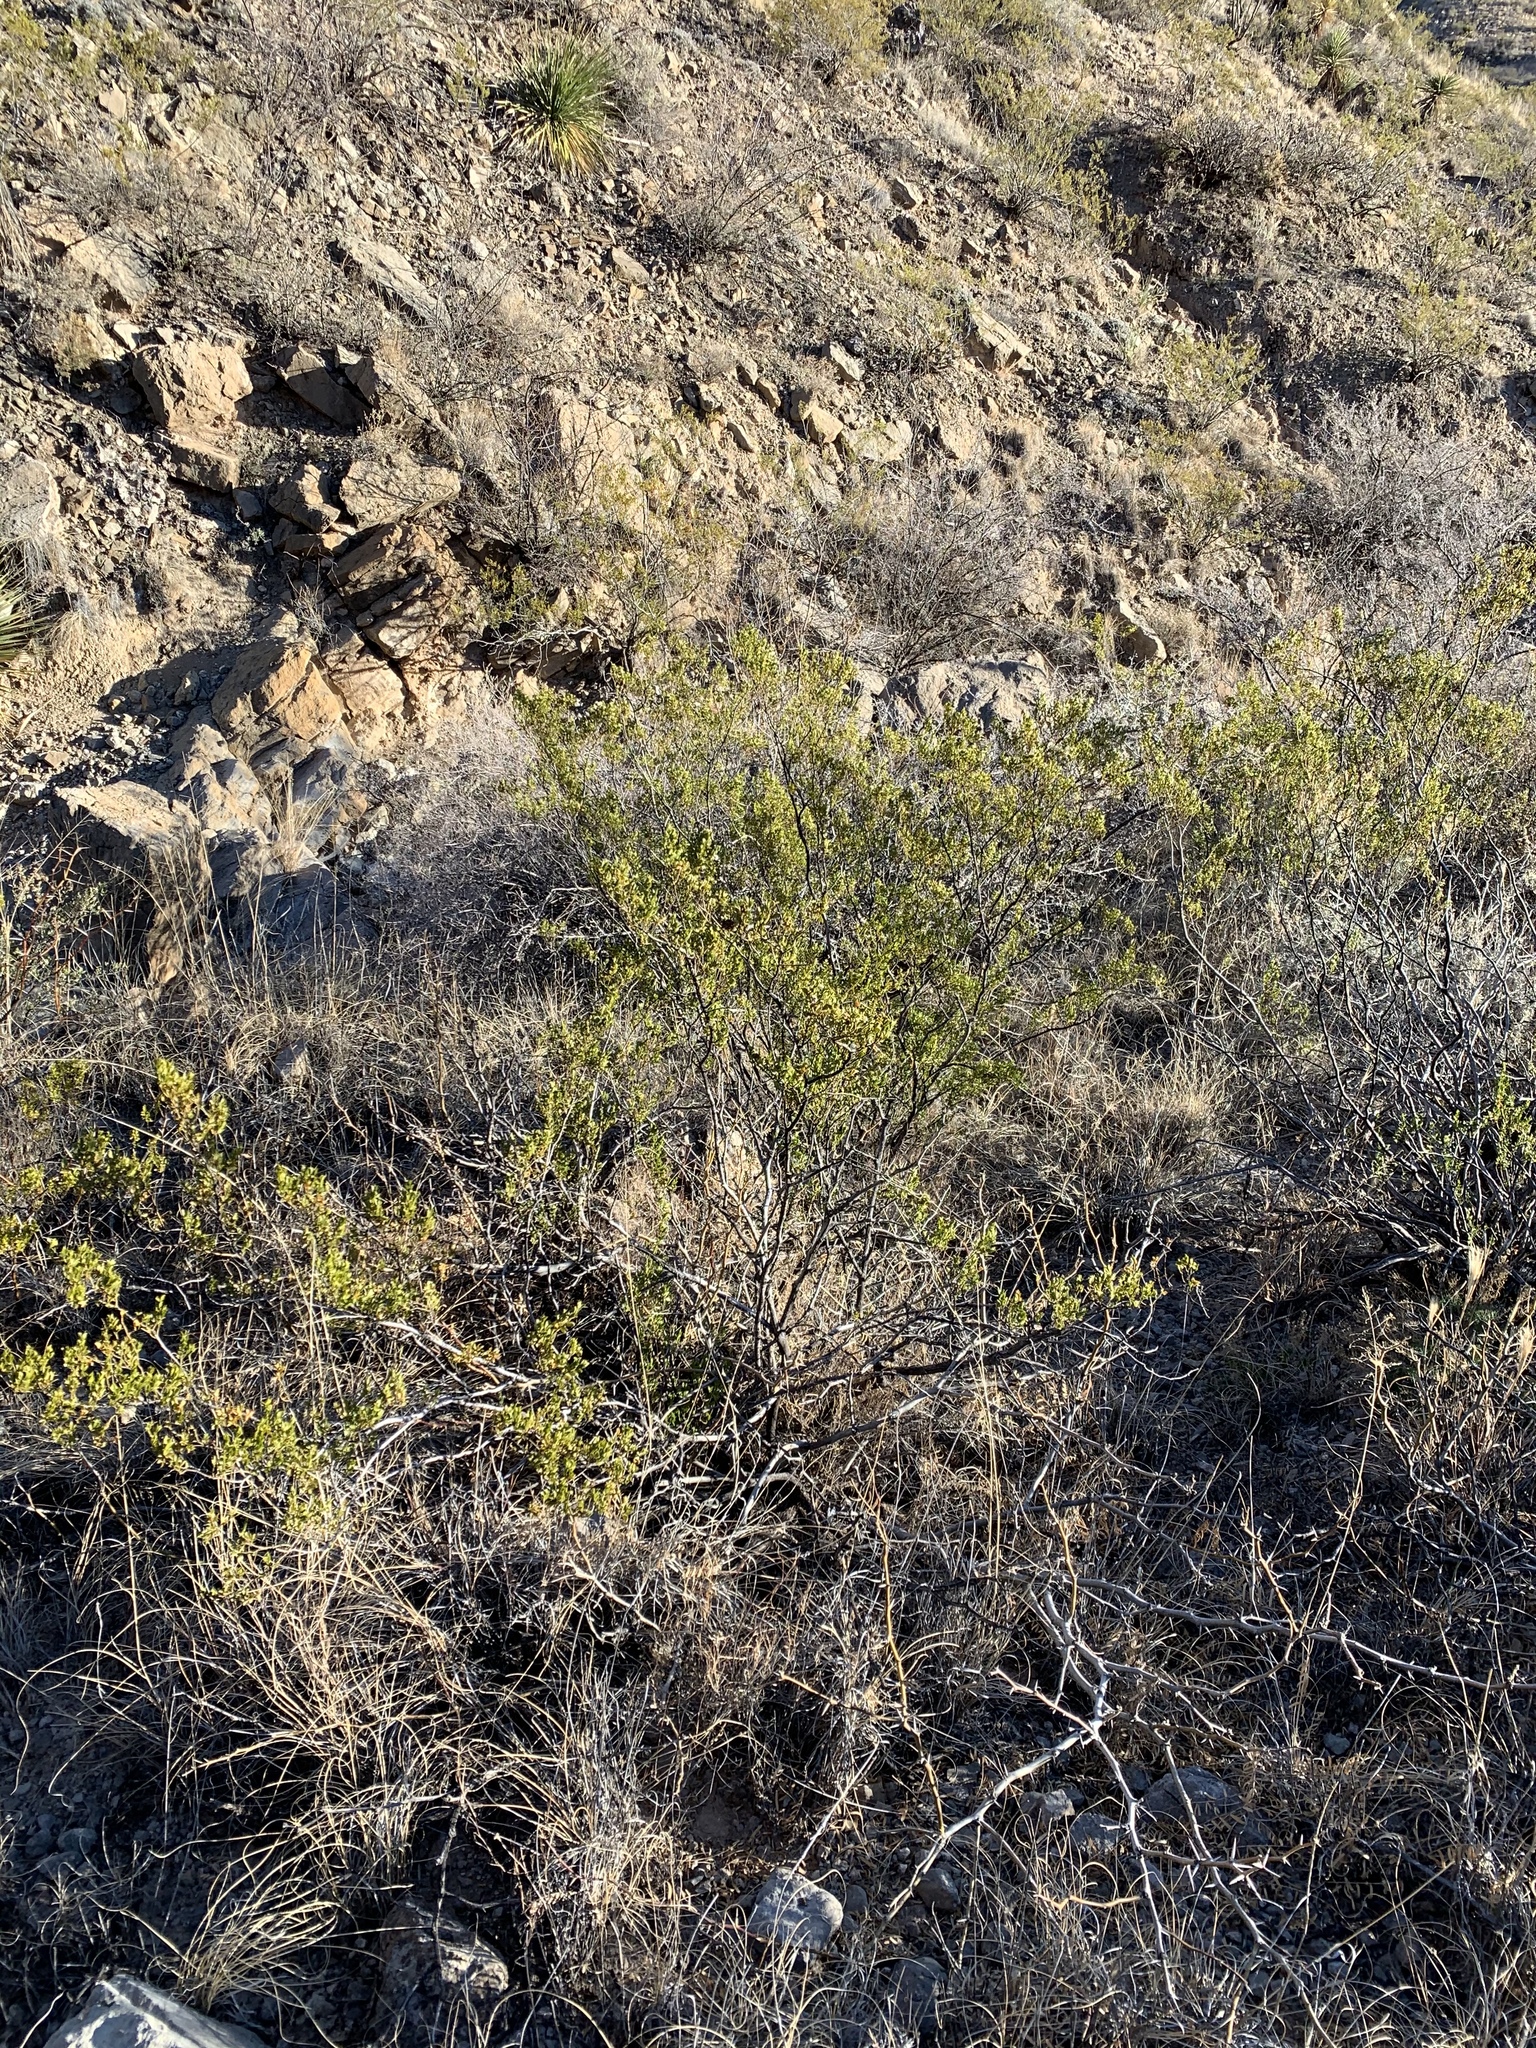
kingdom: Plantae
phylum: Tracheophyta
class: Magnoliopsida
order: Brassicales
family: Koeberliniaceae
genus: Koeberlinia
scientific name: Koeberlinia spinosa
